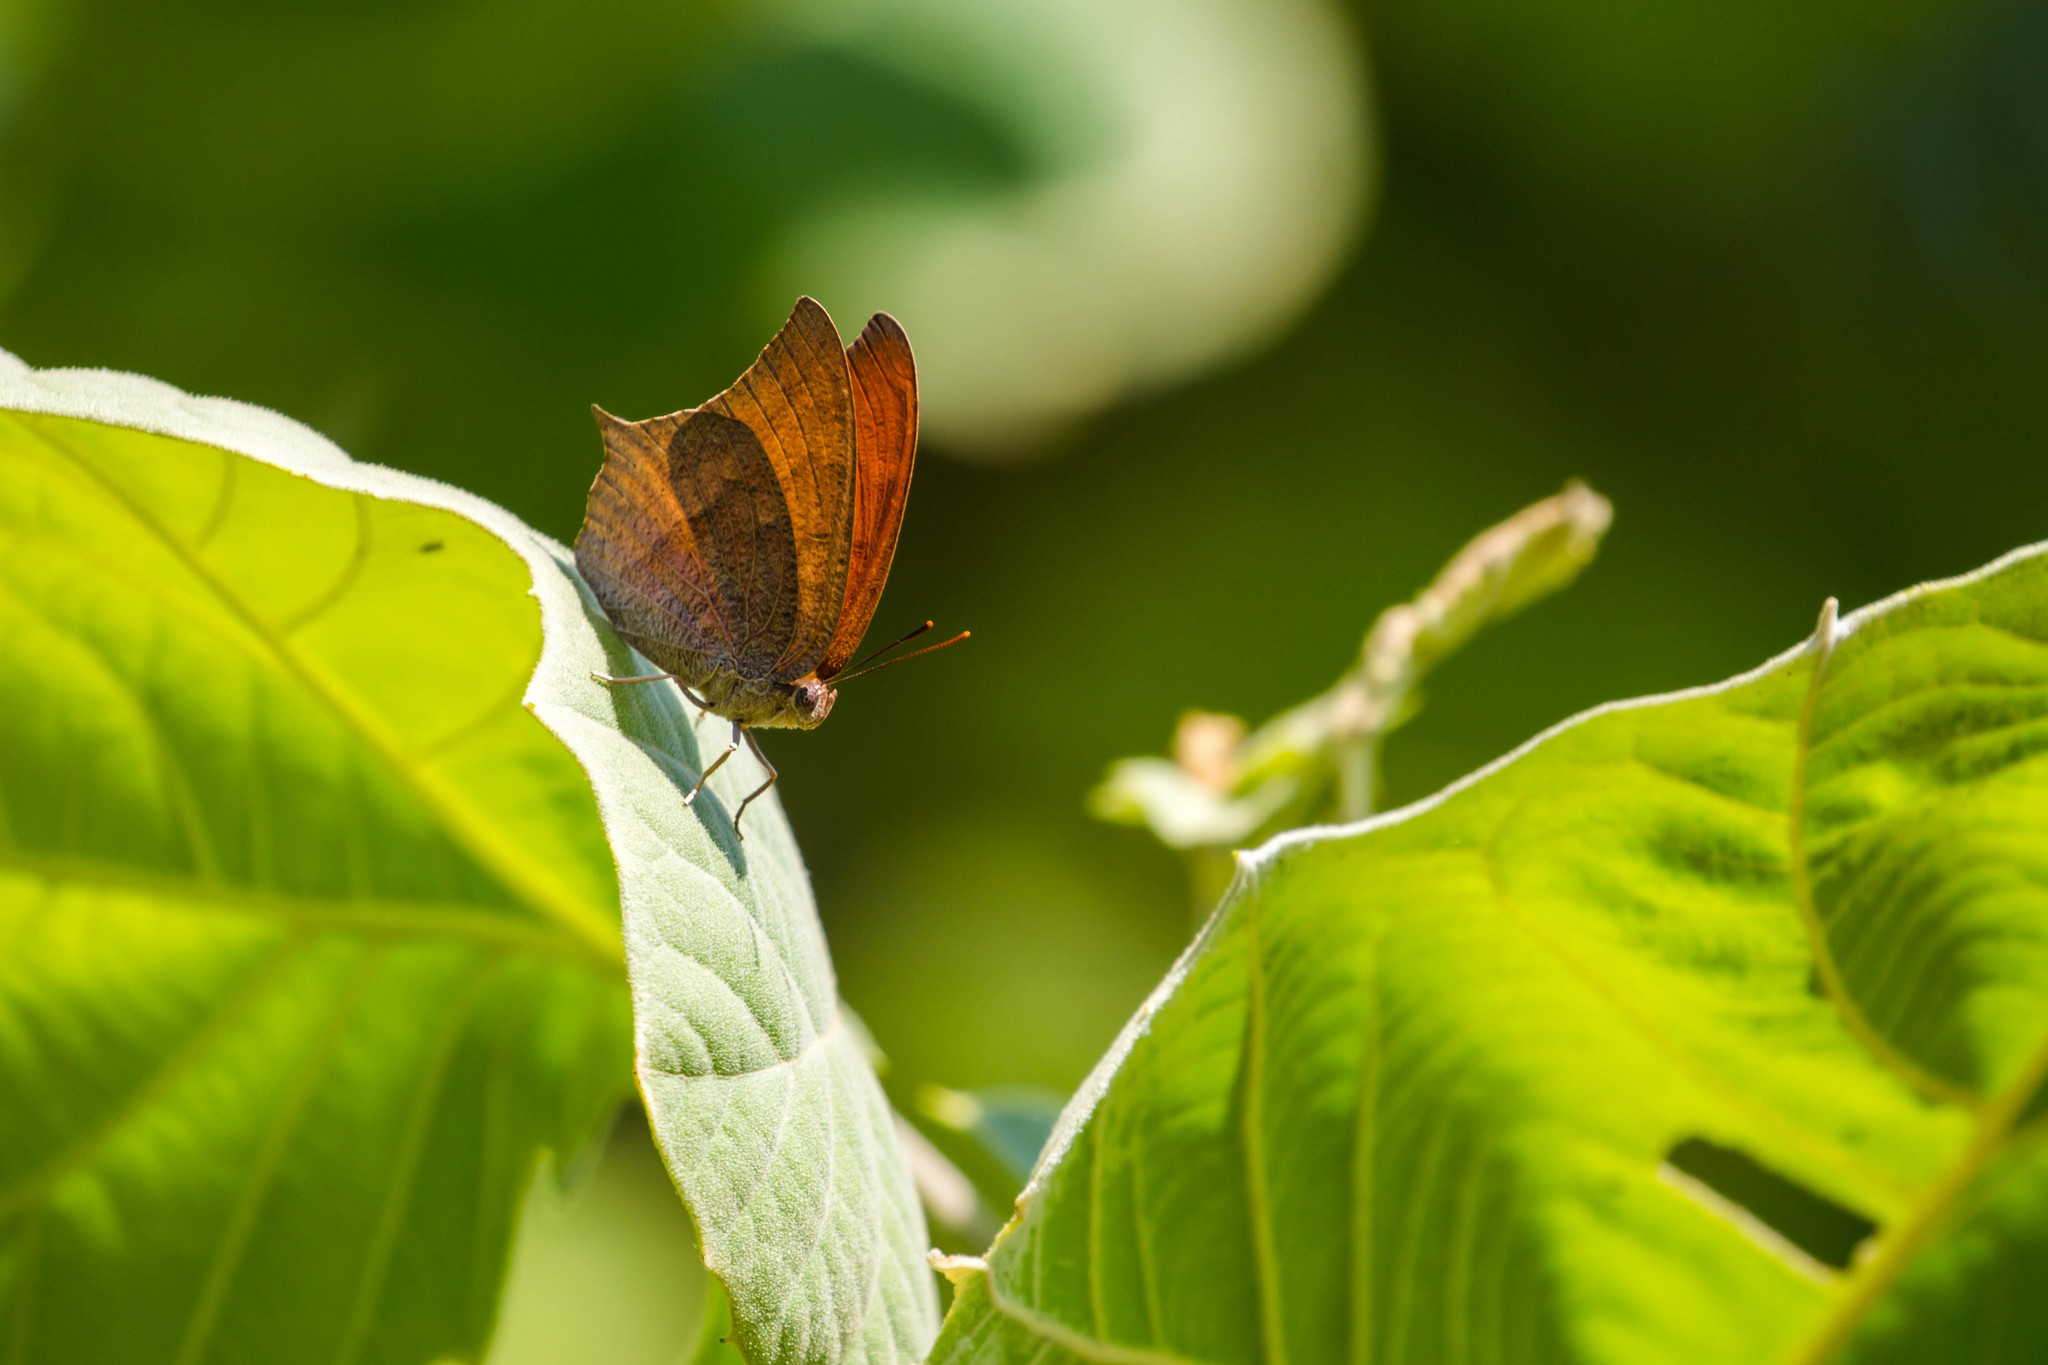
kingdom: Animalia
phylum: Arthropoda
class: Insecta
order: Lepidoptera
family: Nymphalidae
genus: Anaea
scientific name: Anaea andria
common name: Goatweed leafwing
